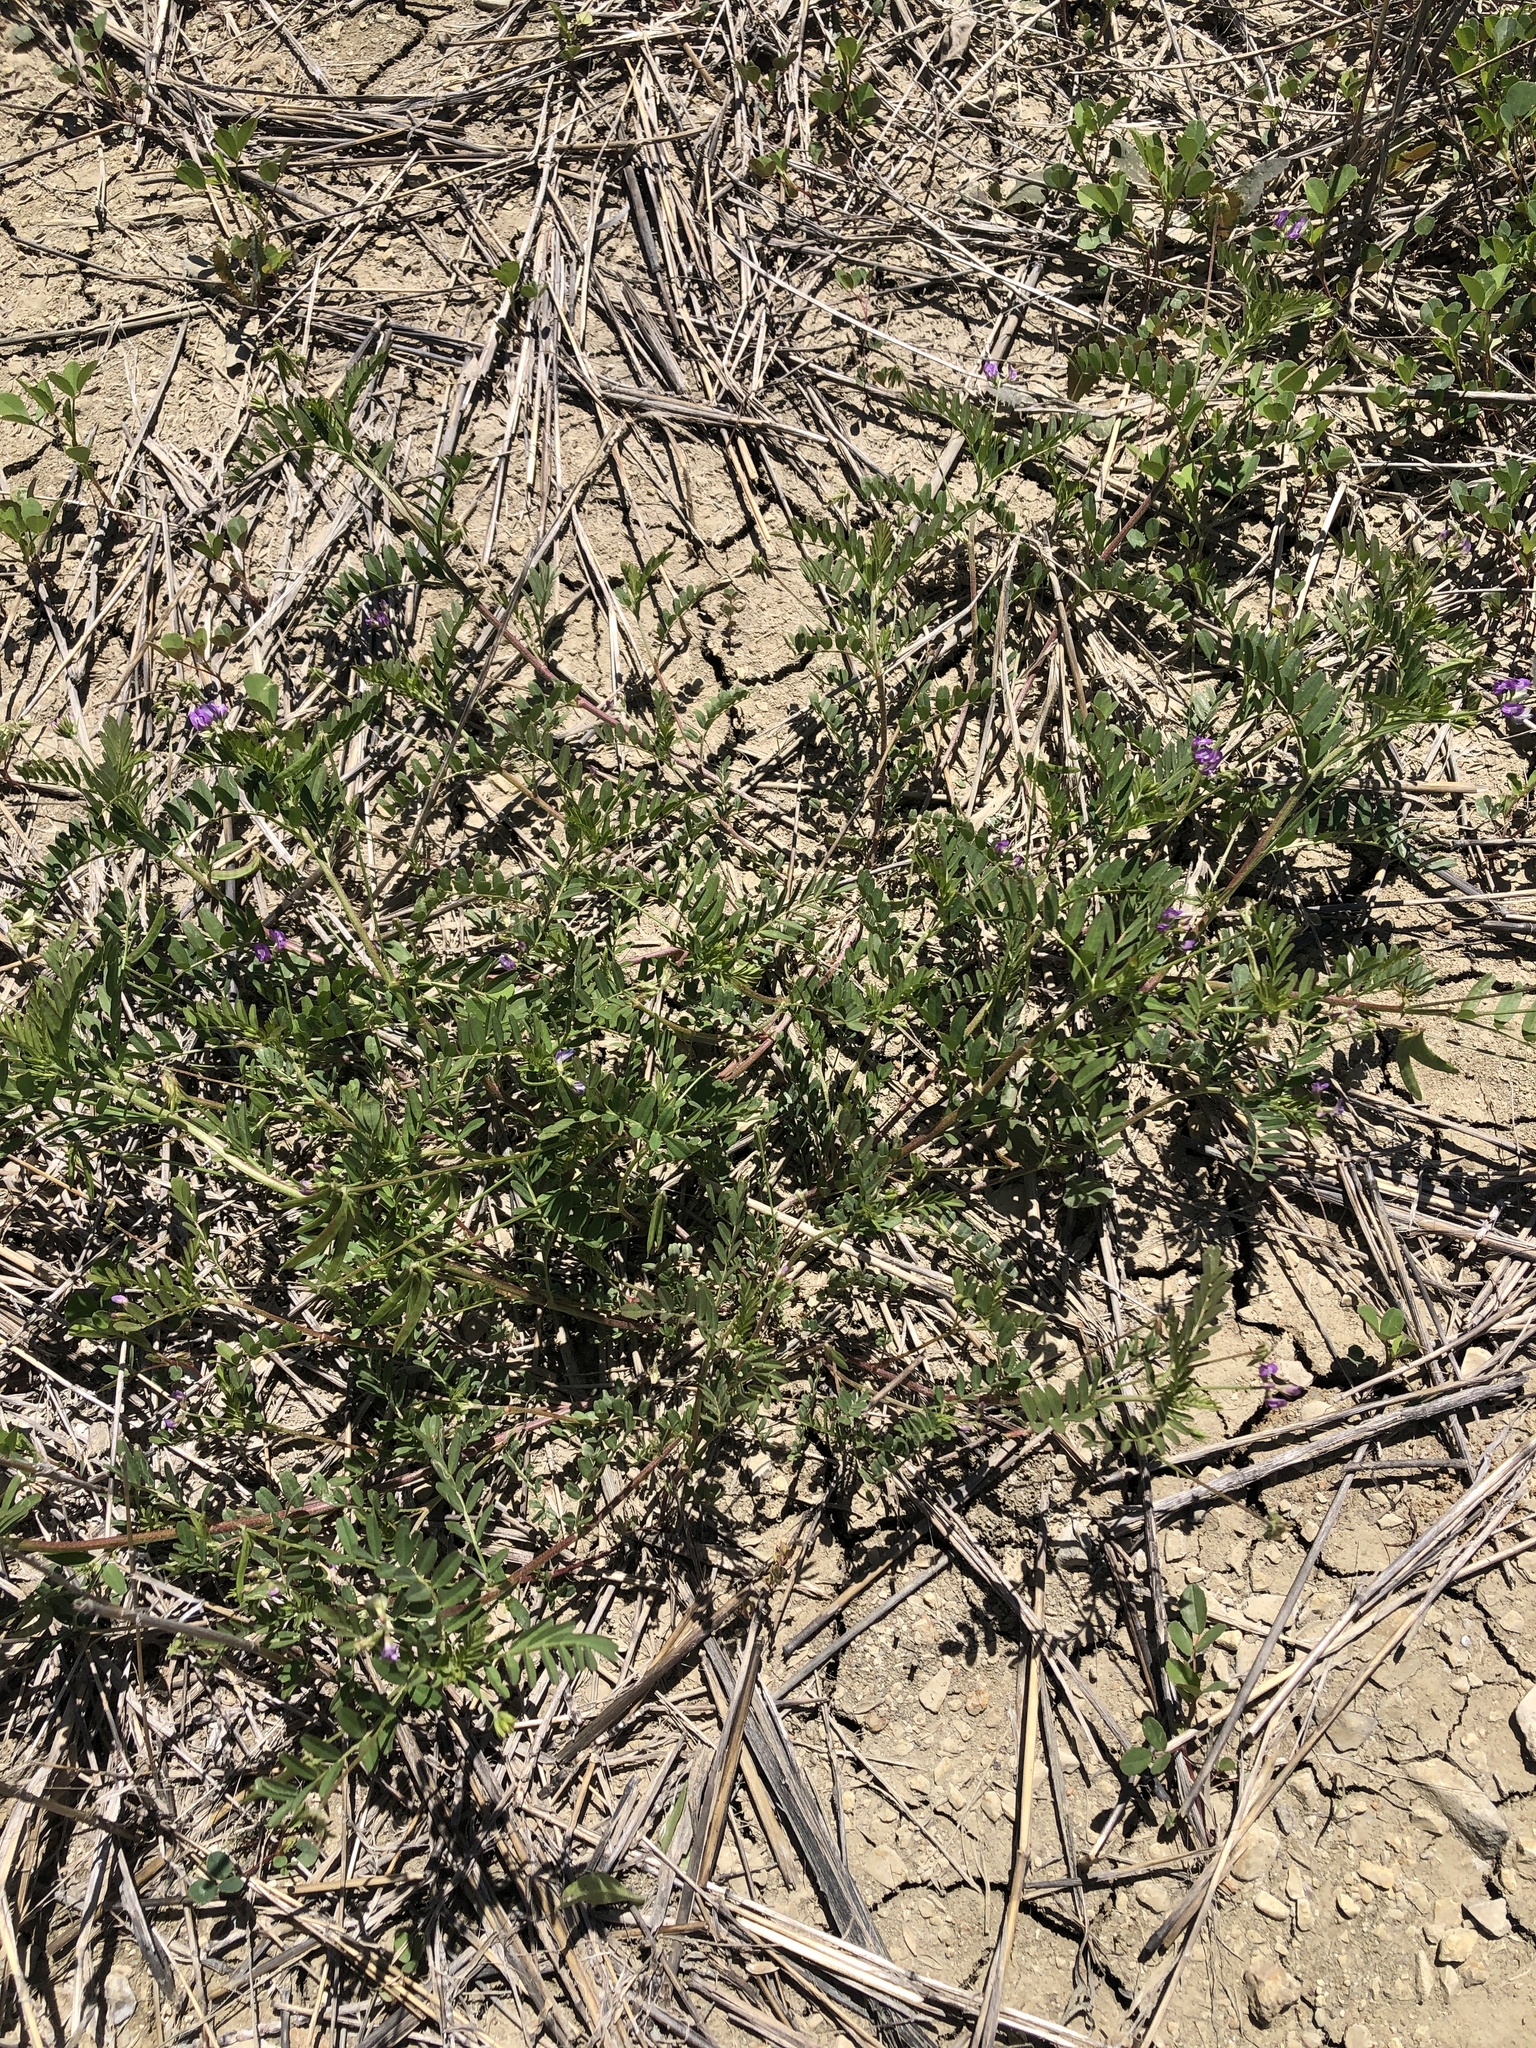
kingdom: Plantae
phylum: Tracheophyta
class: Magnoliopsida
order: Fabales
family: Fabaceae
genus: Astragalus
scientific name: Astragalus nuttallianus
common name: Smallflowered milkvetch
